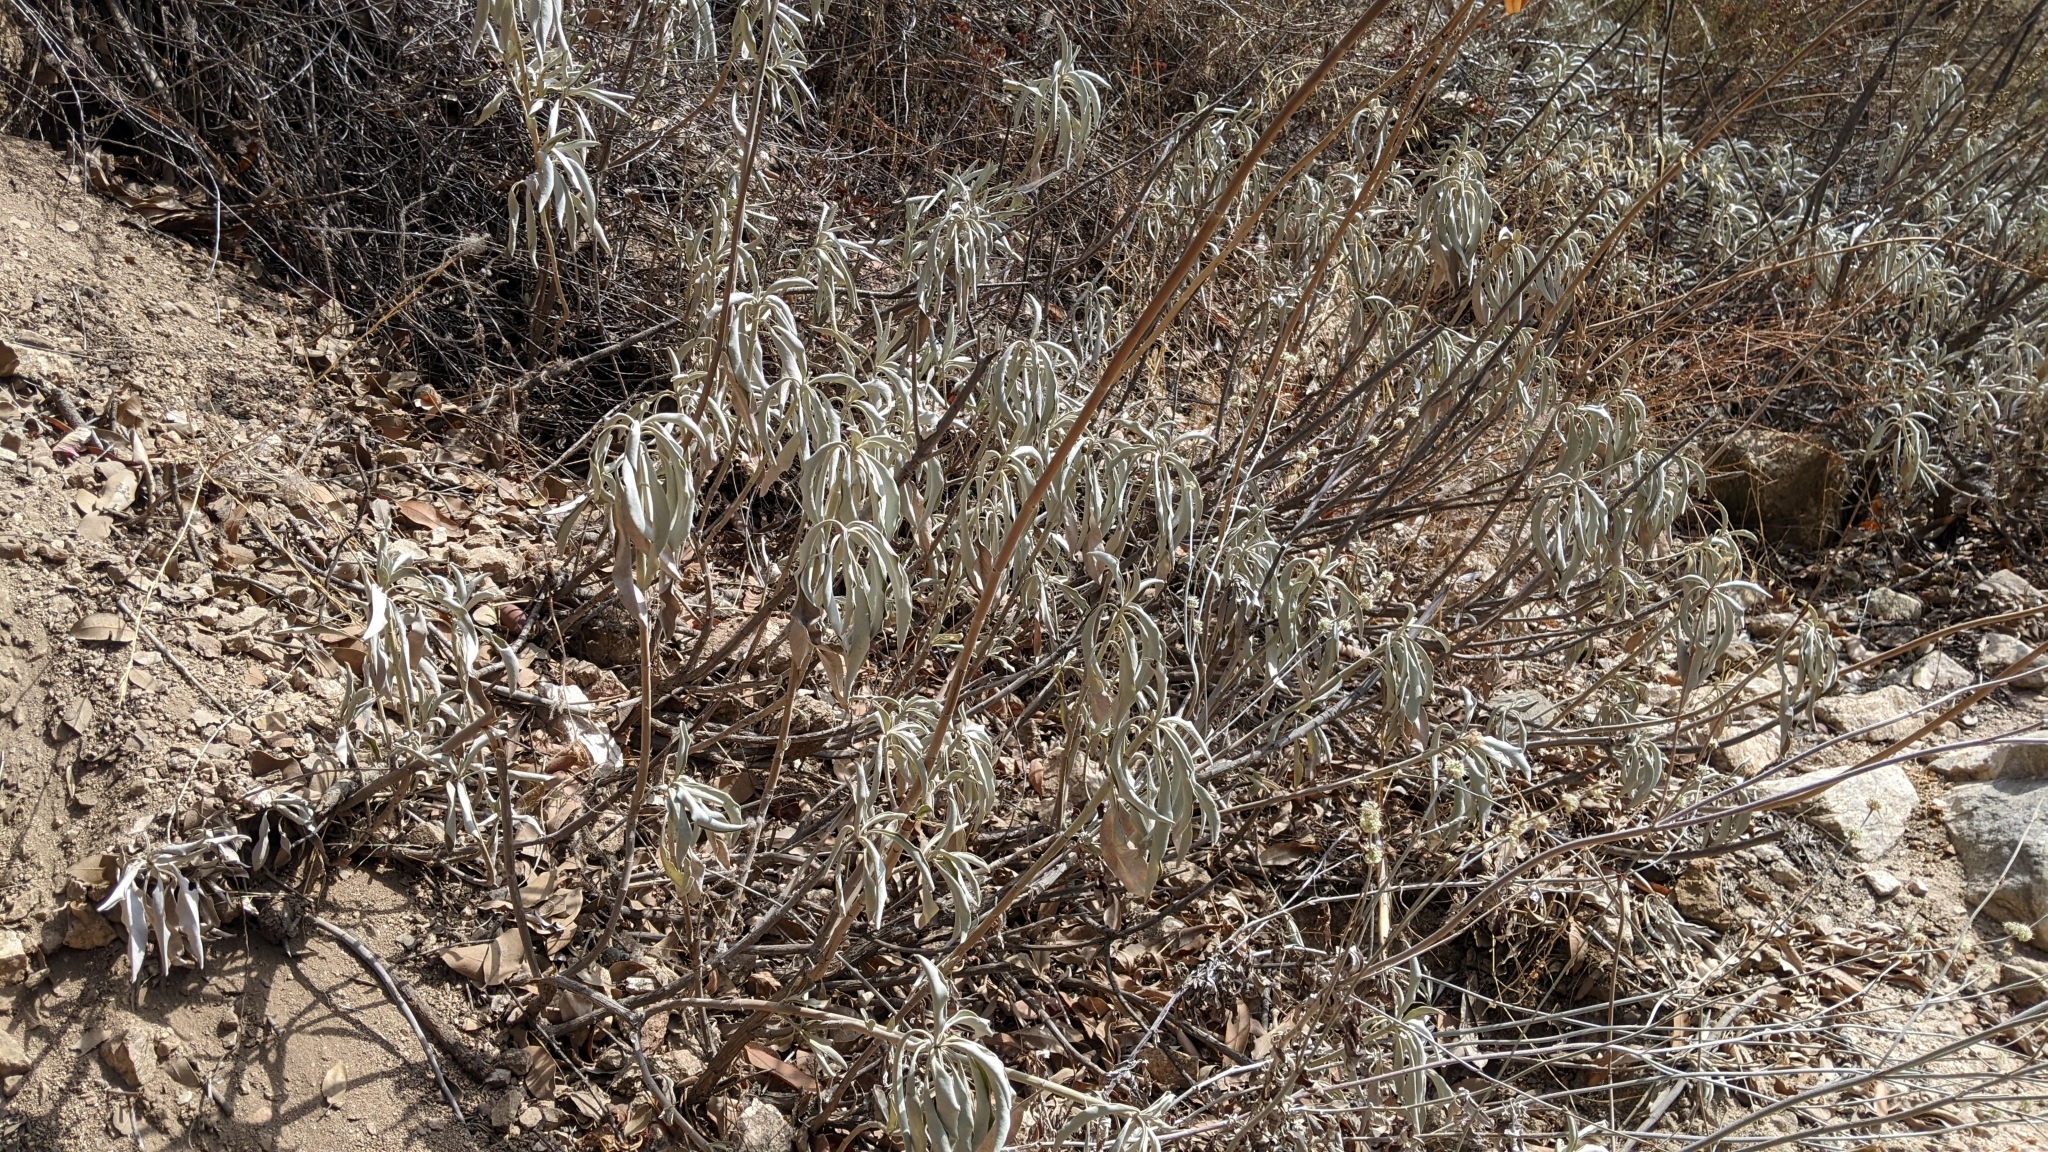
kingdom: Plantae
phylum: Tracheophyta
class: Magnoliopsida
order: Lamiales
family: Lamiaceae
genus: Salvia
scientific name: Salvia apiana
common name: White sage
